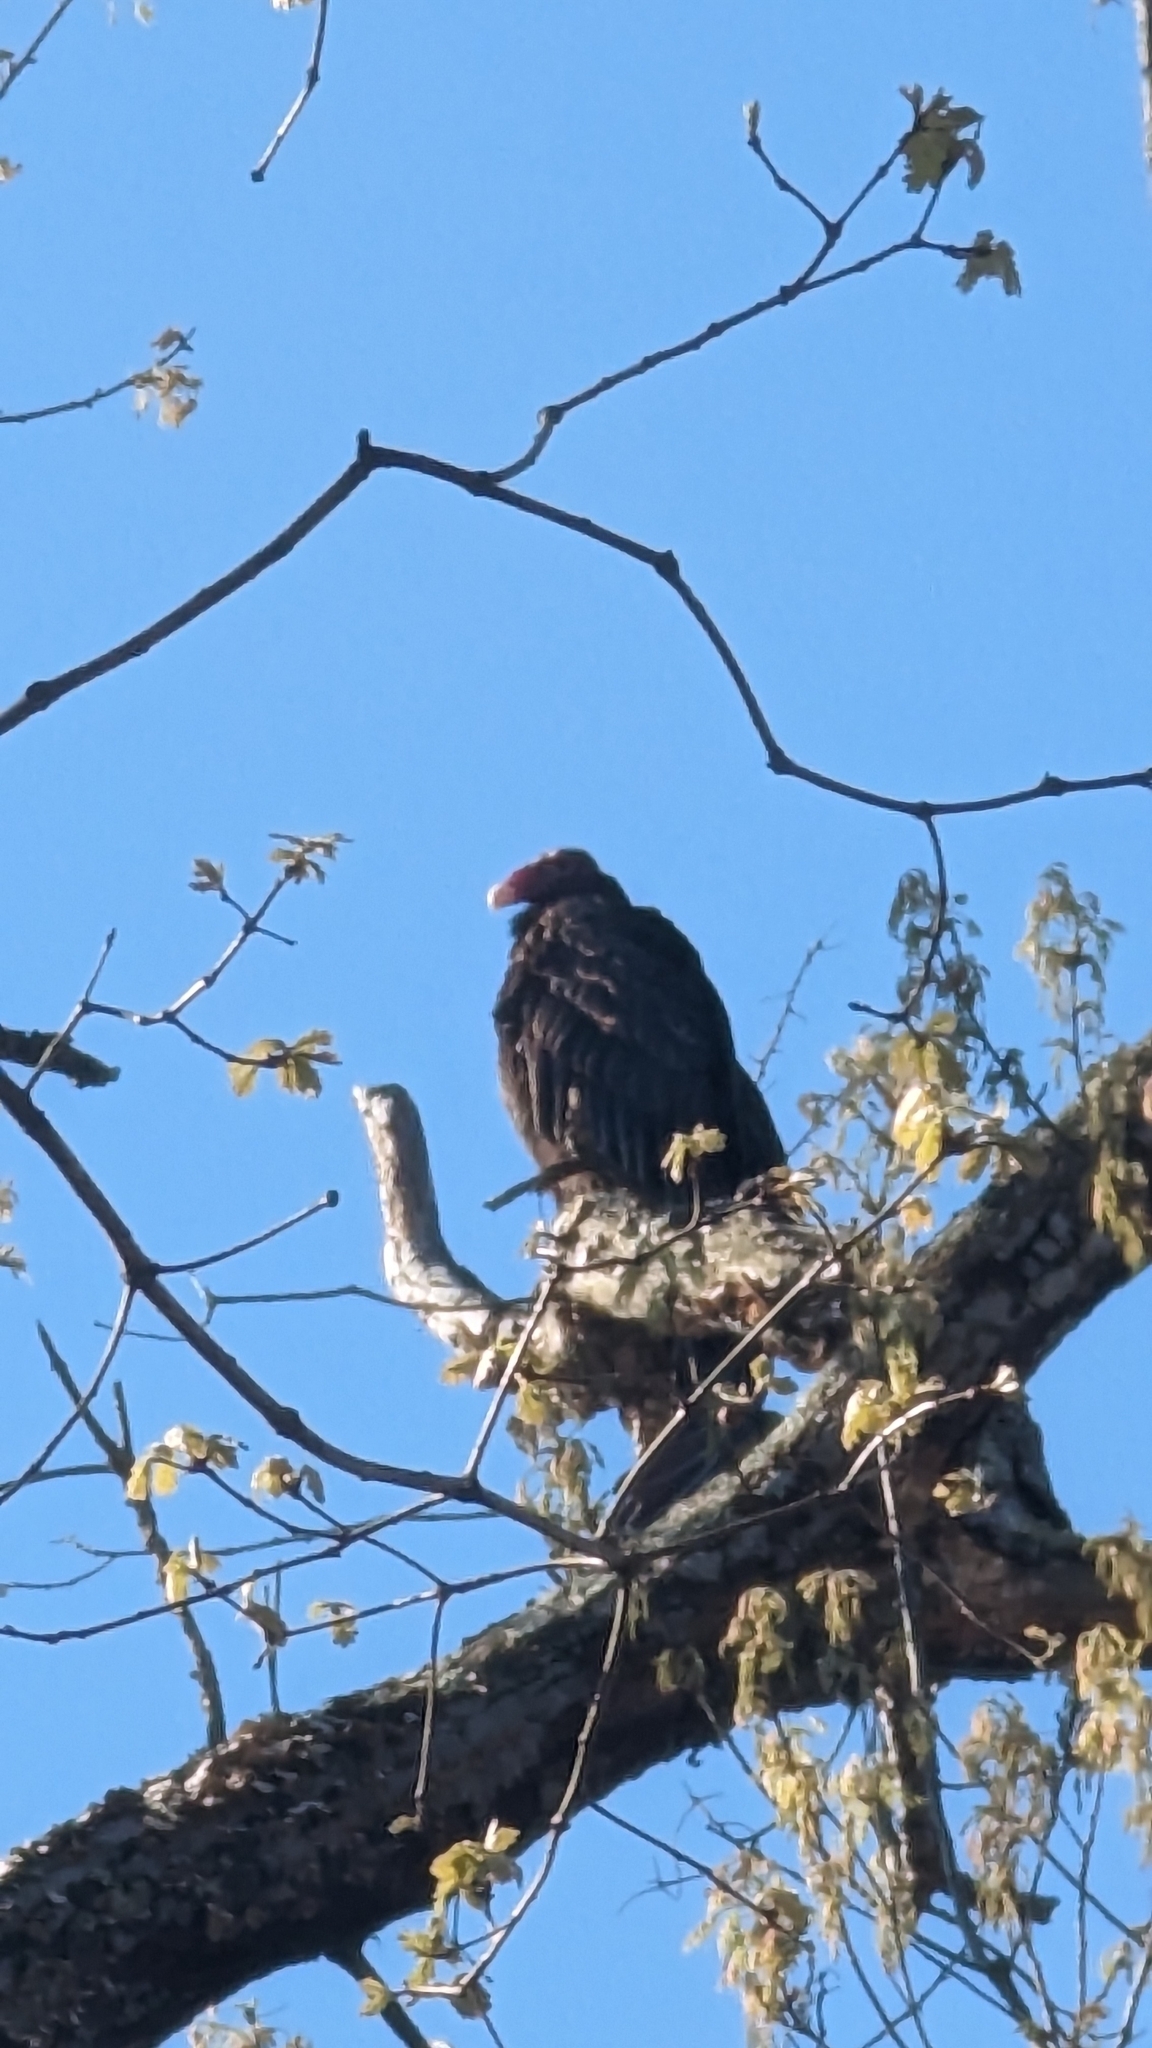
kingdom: Animalia
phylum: Chordata
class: Aves
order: Accipitriformes
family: Cathartidae
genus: Cathartes
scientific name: Cathartes aura
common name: Turkey vulture
